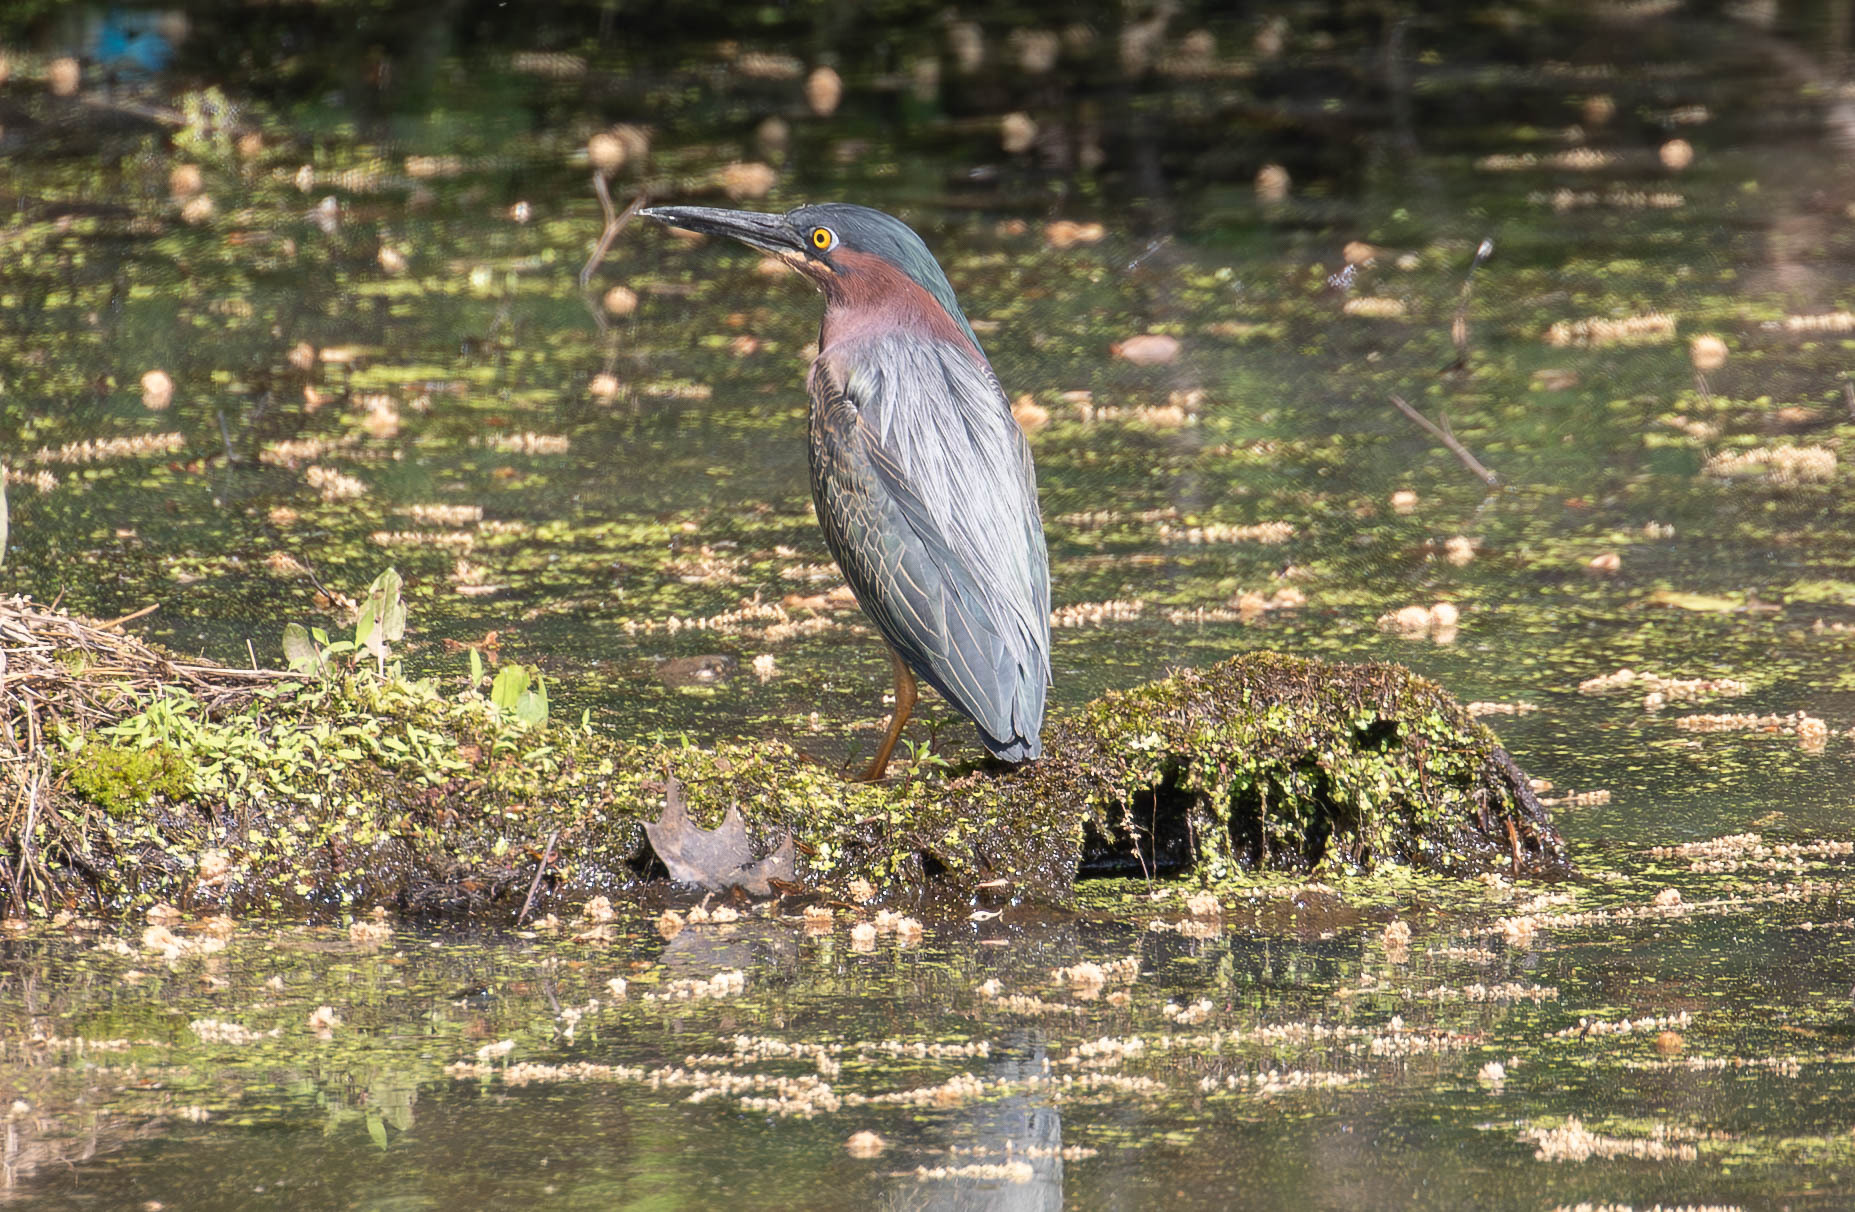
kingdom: Animalia
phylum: Chordata
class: Aves
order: Pelecaniformes
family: Ardeidae
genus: Butorides
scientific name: Butorides virescens
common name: Green heron
